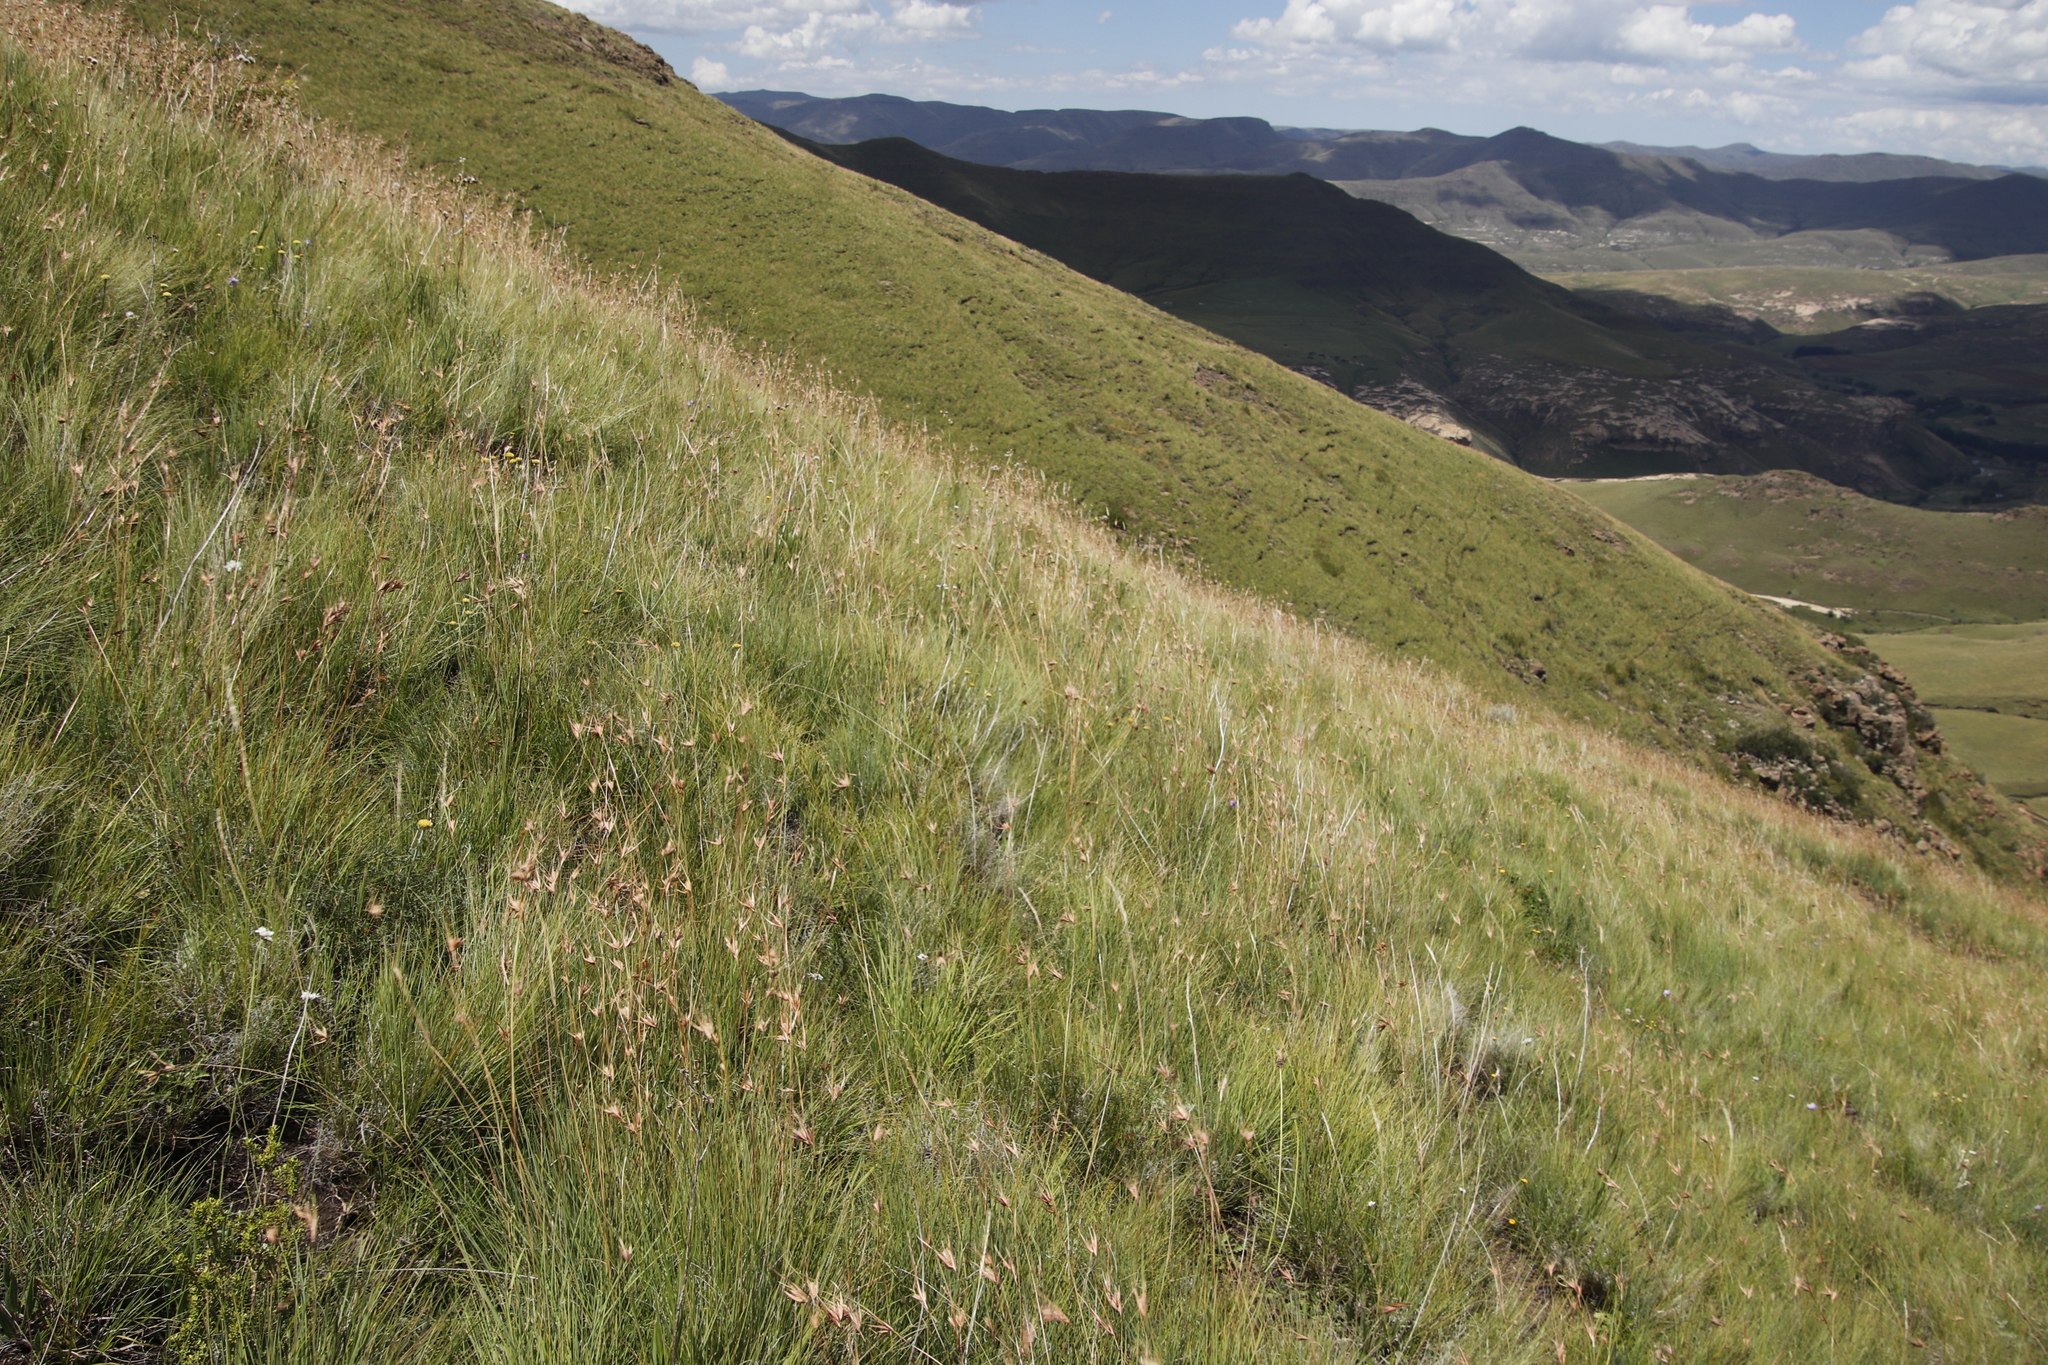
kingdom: Plantae
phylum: Tracheophyta
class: Liliopsida
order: Poales
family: Poaceae
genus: Themeda
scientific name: Themeda triandra
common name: Kangaroo grass
